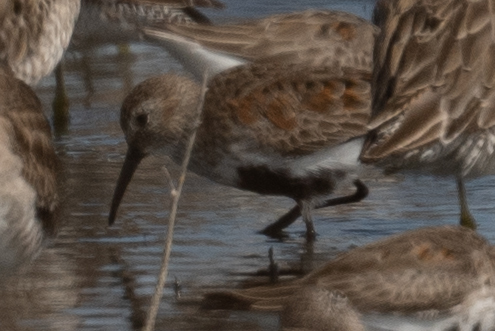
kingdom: Animalia
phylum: Chordata
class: Aves
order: Charadriiformes
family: Scolopacidae
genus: Calidris
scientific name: Calidris alpina
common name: Dunlin
